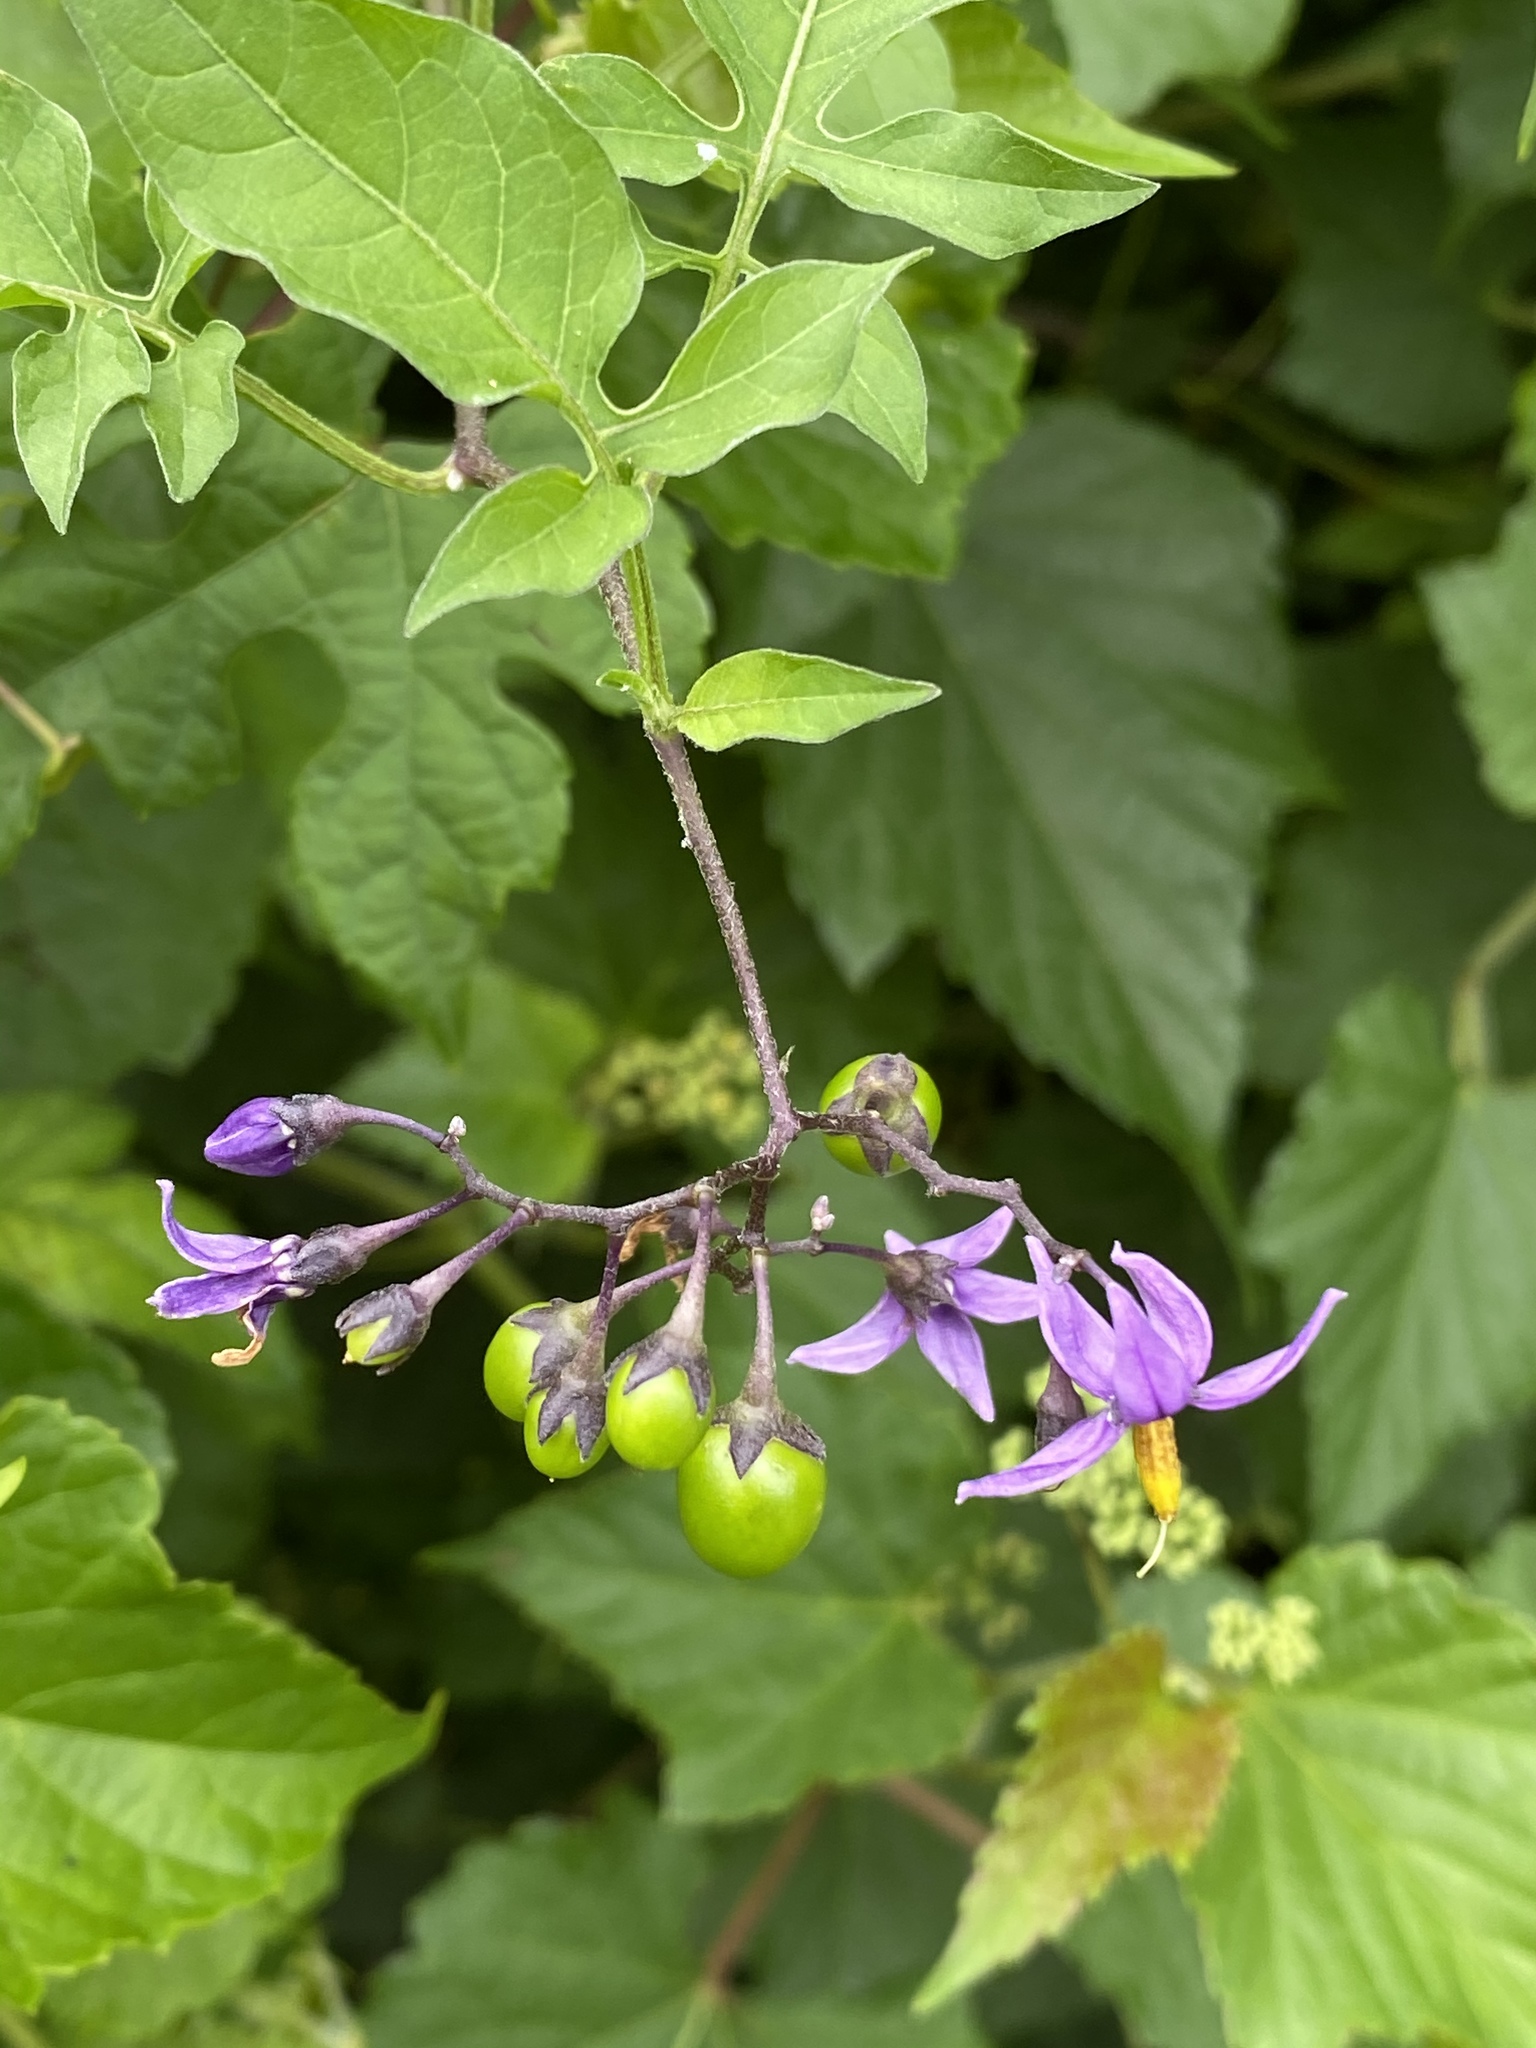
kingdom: Plantae
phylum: Tracheophyta
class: Magnoliopsida
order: Solanales
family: Solanaceae
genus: Solanum
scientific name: Solanum dulcamara
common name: Climbing nightshade
